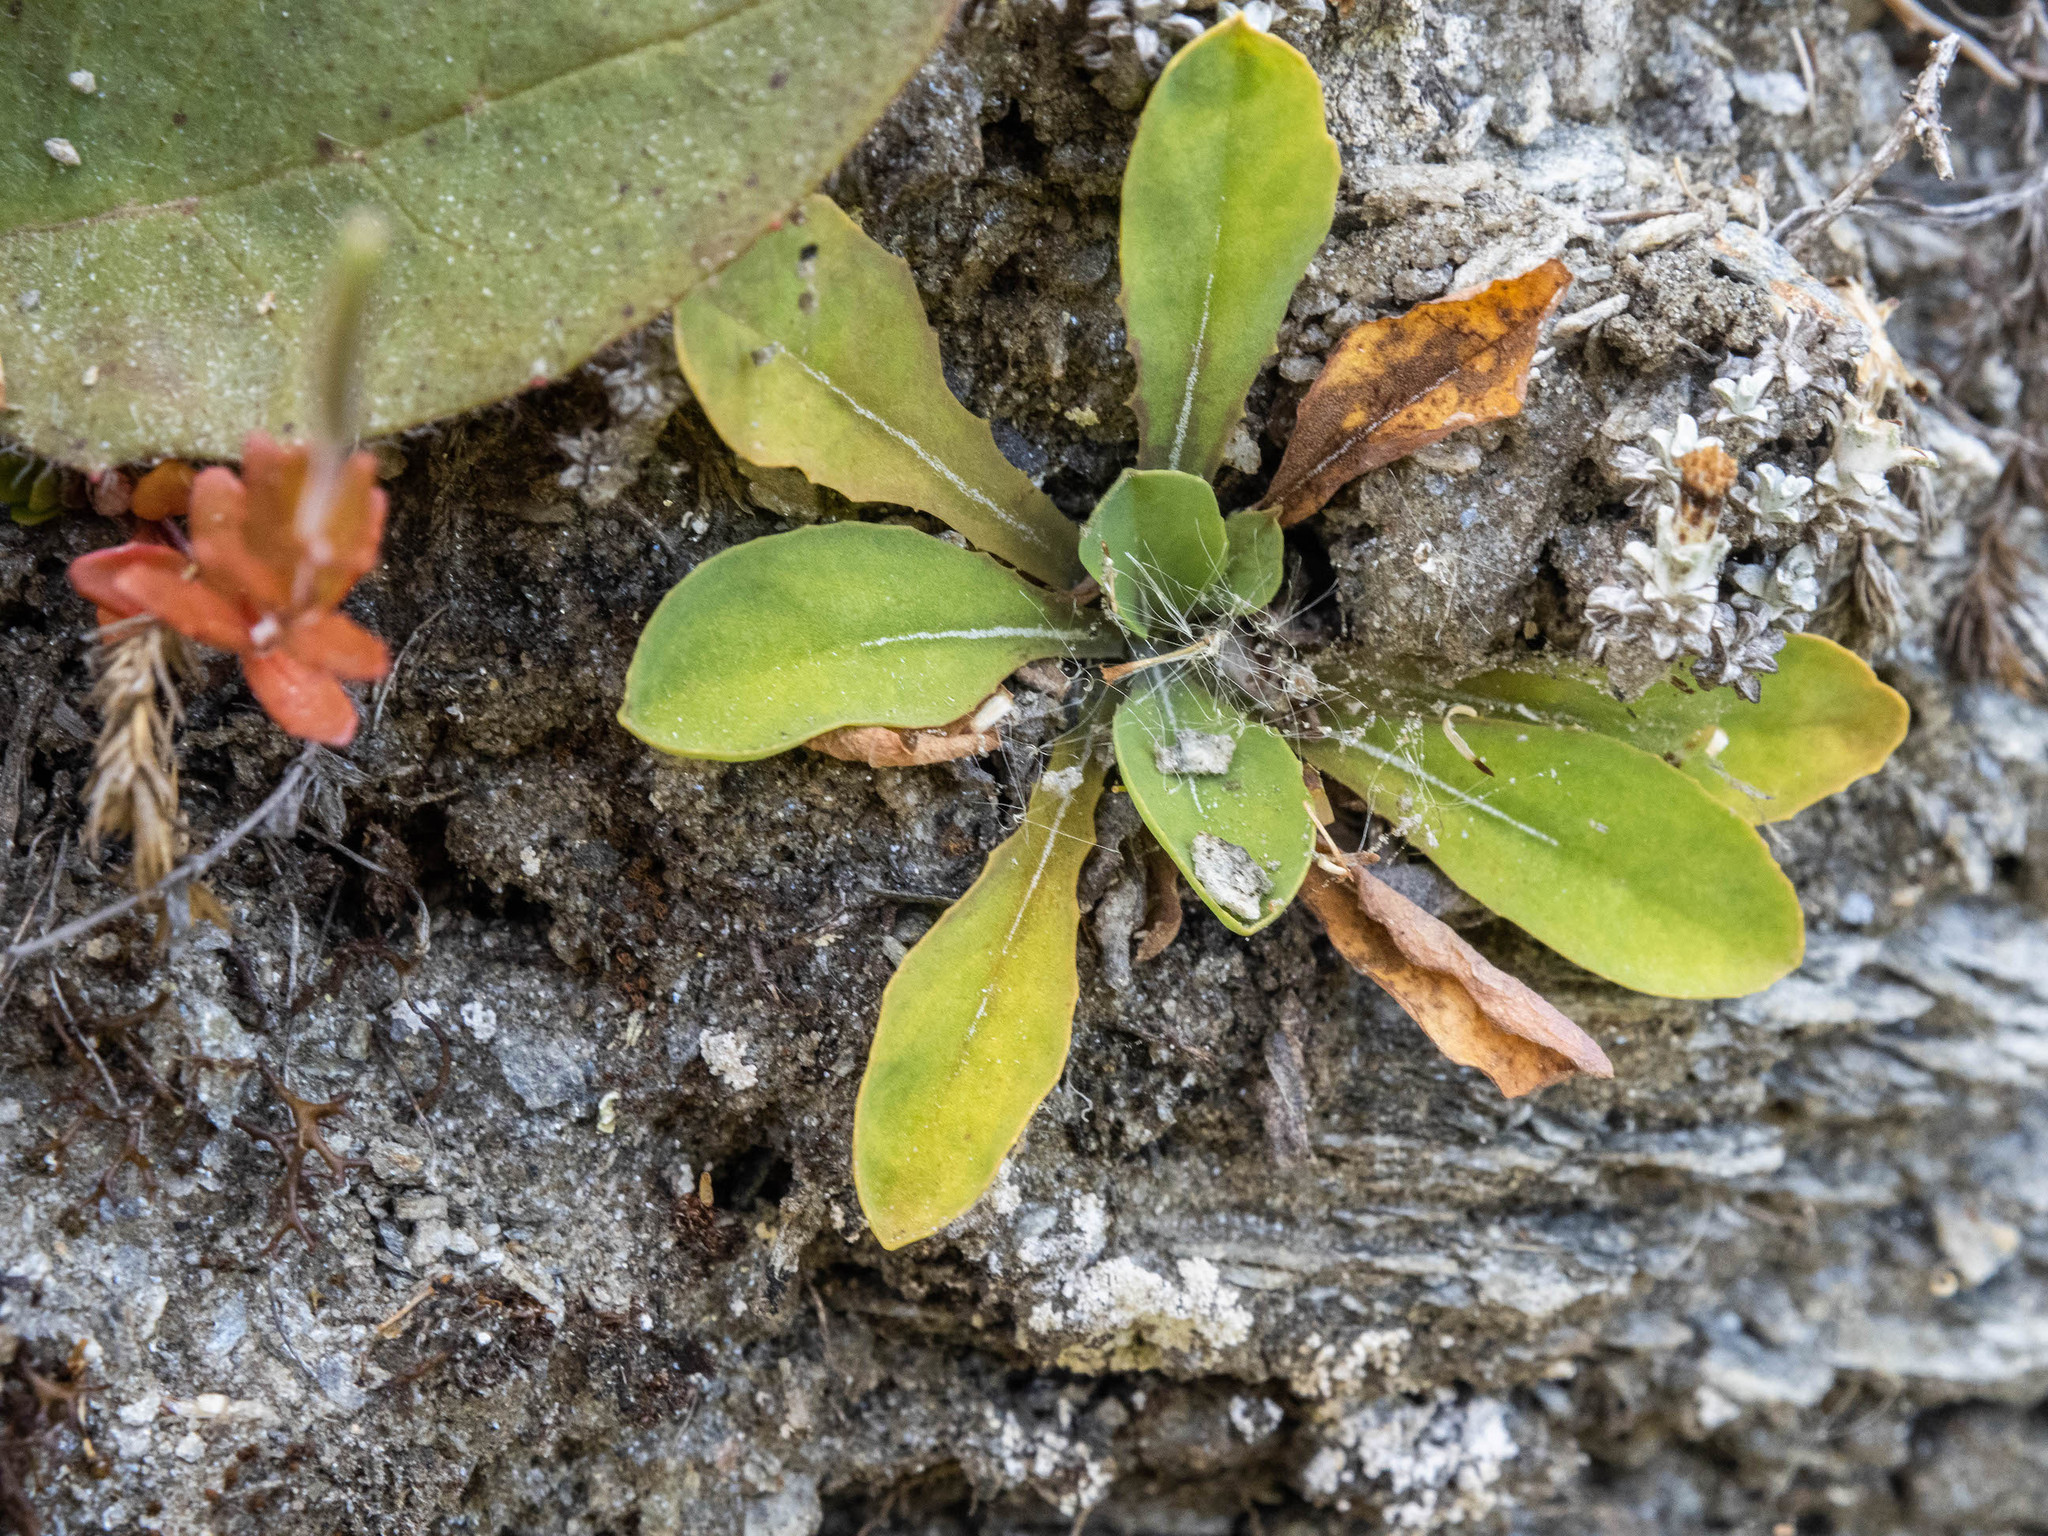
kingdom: Plantae
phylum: Tracheophyta
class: Magnoliopsida
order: Asterales
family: Asteraceae
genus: Sonchus
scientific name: Sonchus novae-zelandiae
